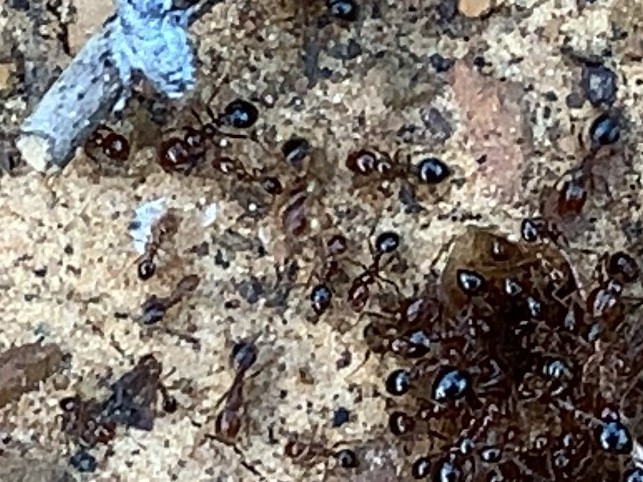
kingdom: Animalia
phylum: Arthropoda
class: Insecta
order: Hymenoptera
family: Formicidae
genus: Solenopsis
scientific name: Solenopsis invicta
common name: Red imported fire ant
